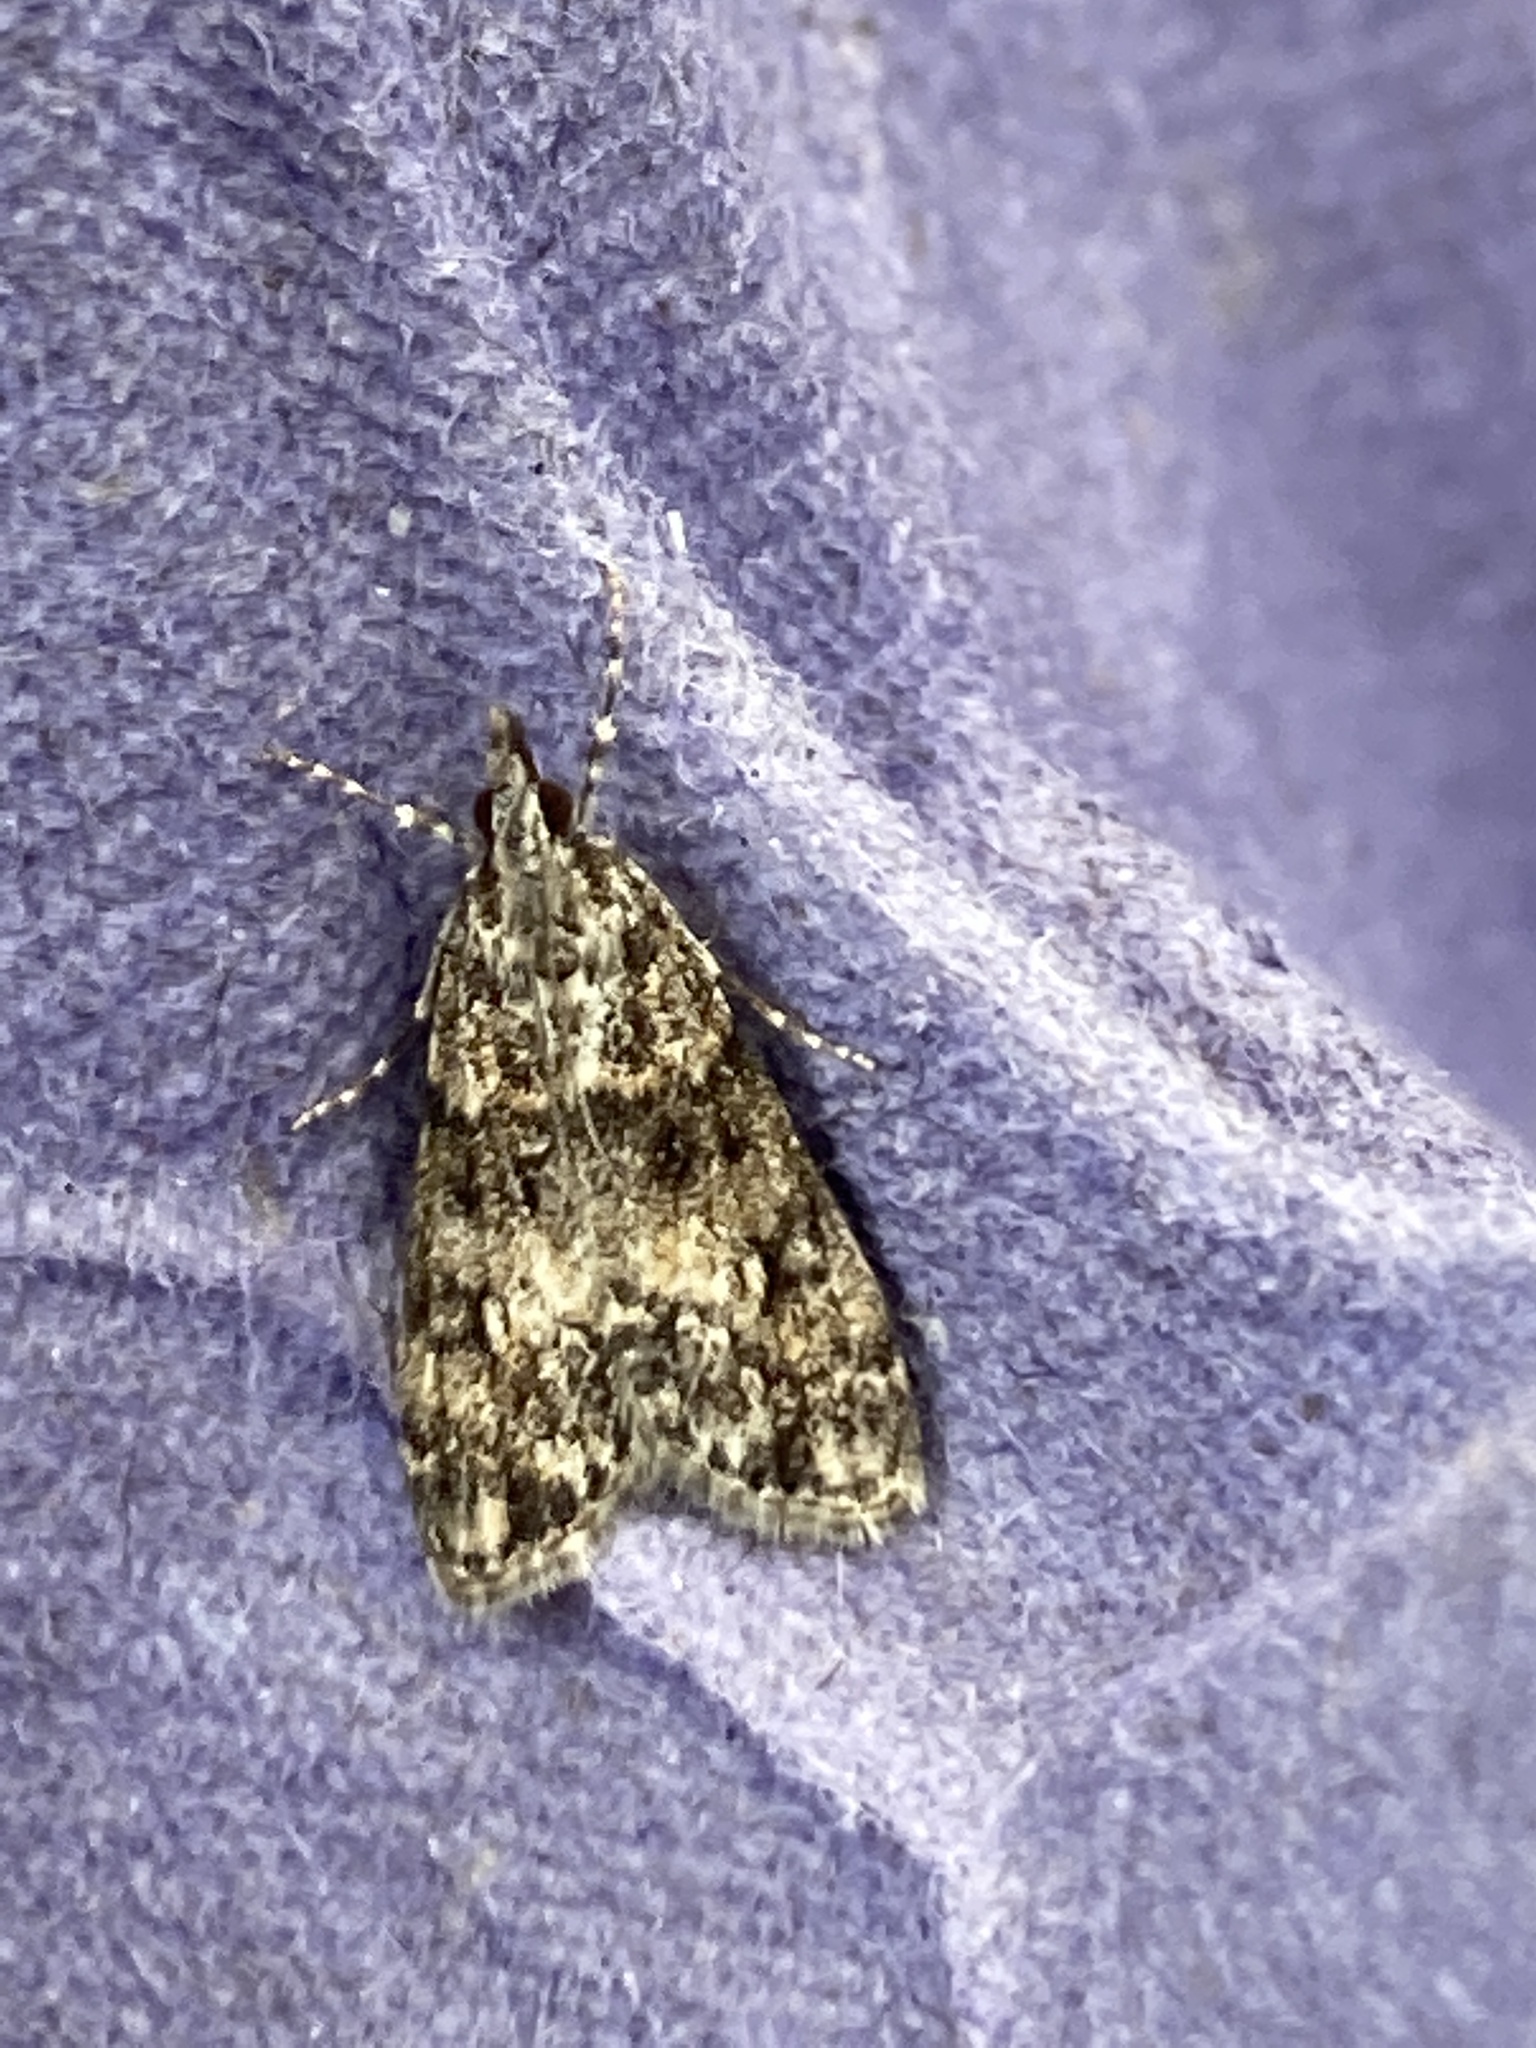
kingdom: Animalia
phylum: Arthropoda
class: Insecta
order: Lepidoptera
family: Crambidae
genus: Eudonia
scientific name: Eudonia lacustrata
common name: Little grey
